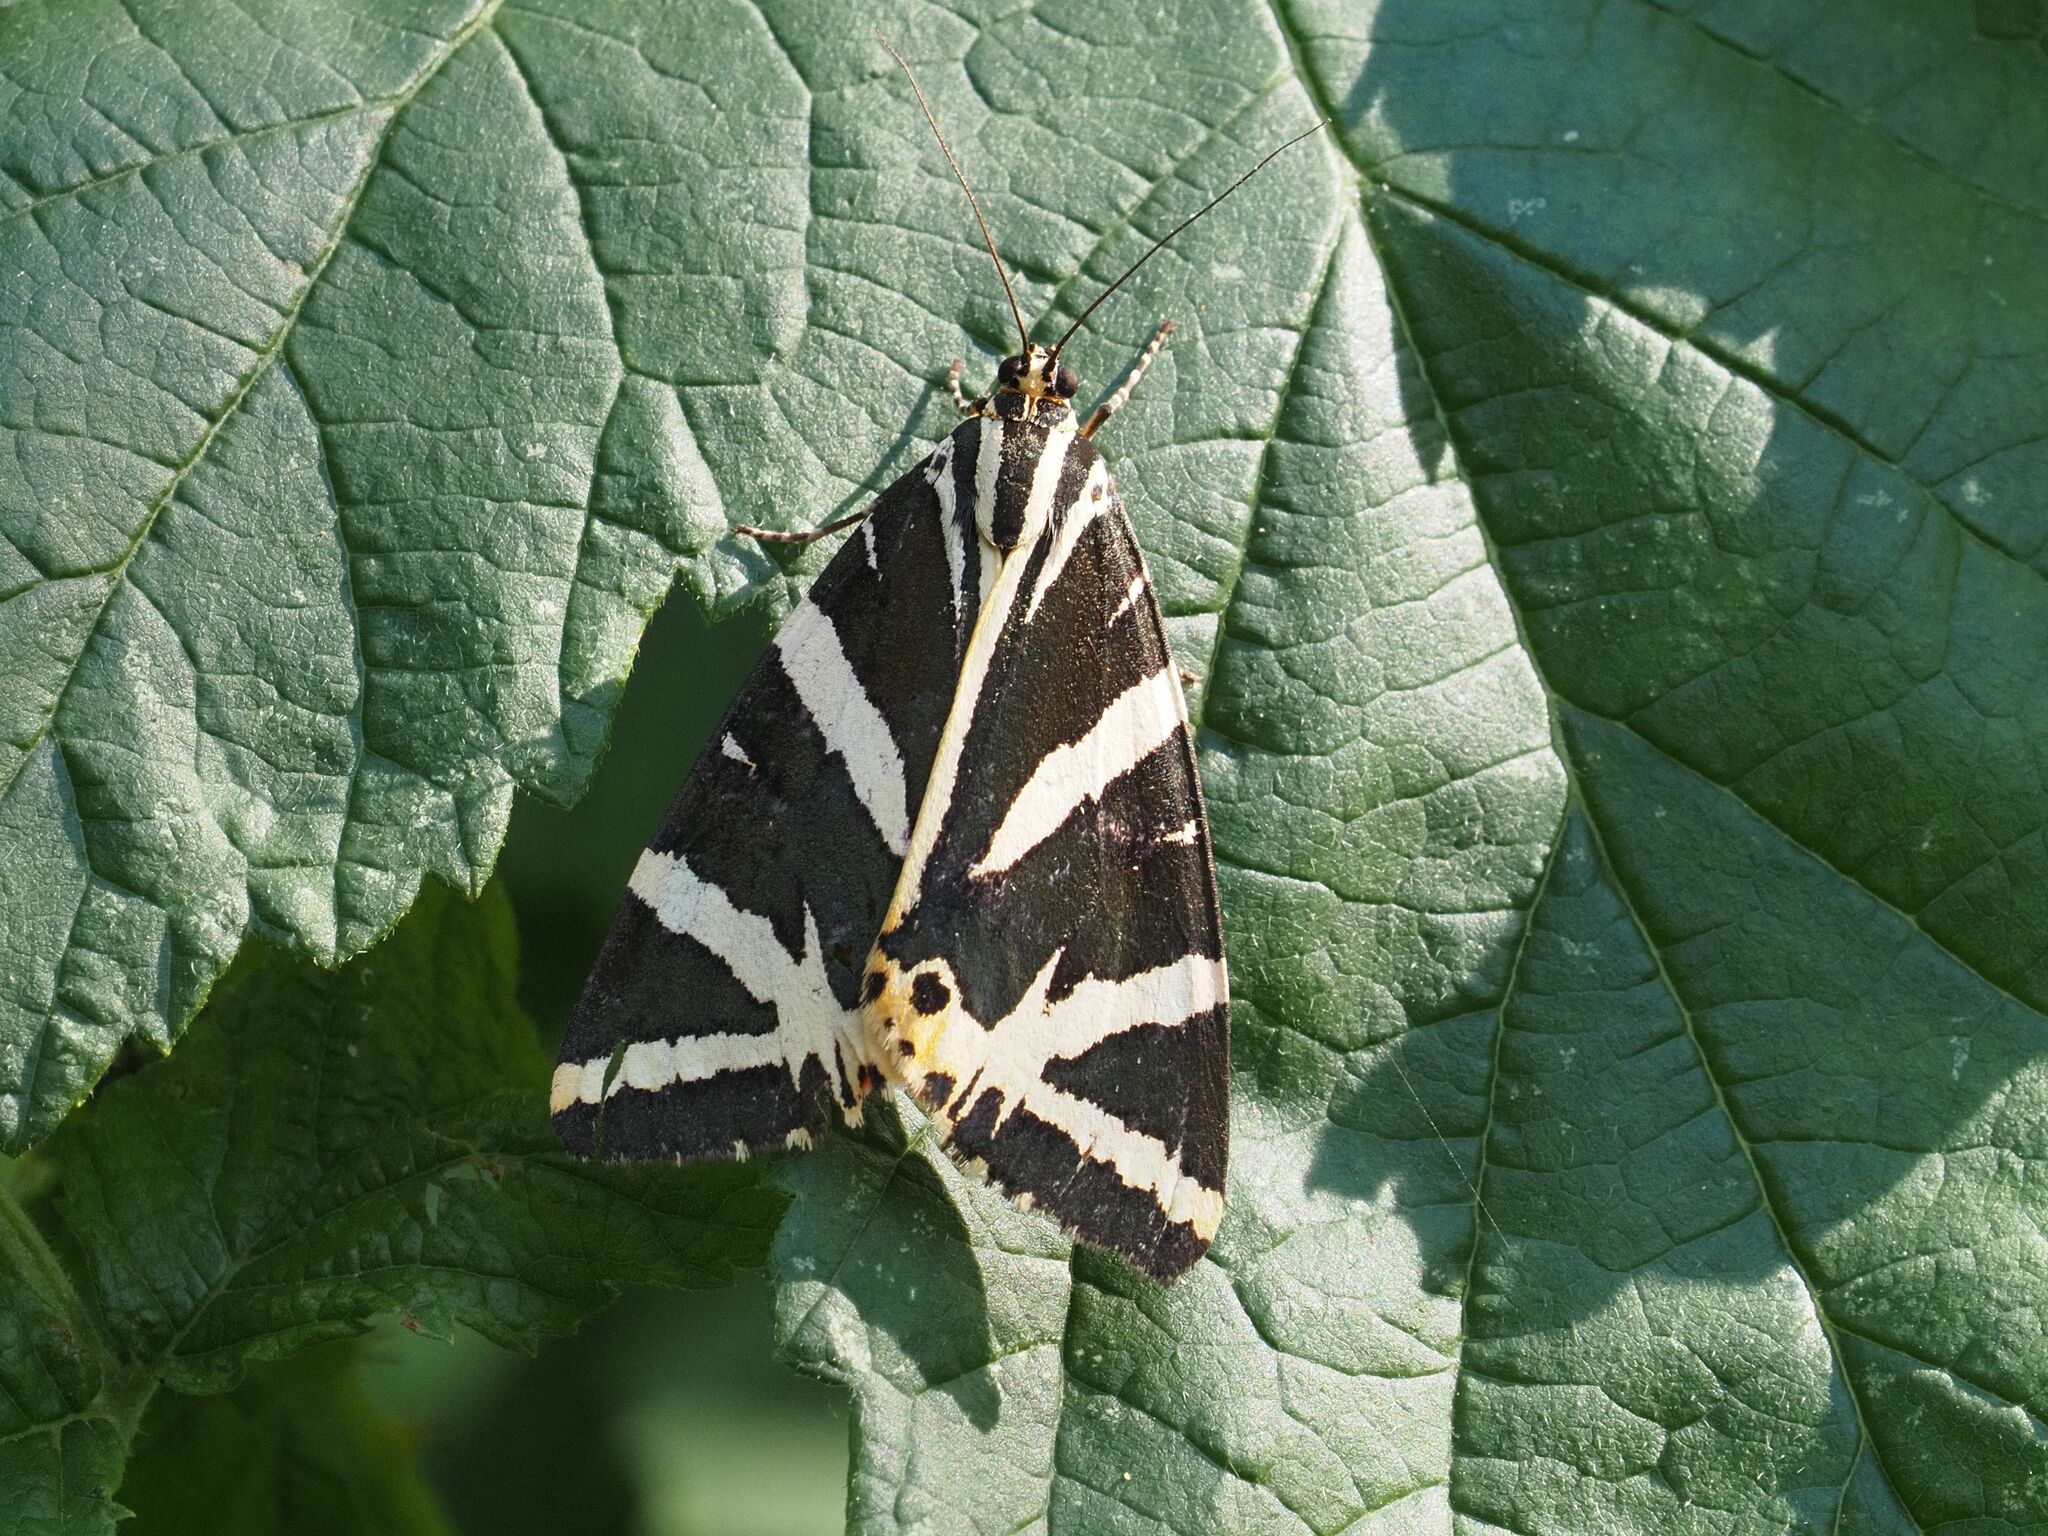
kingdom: Animalia
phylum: Arthropoda
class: Insecta
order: Lepidoptera
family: Erebidae
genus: Euplagia
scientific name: Euplagia quadripunctaria
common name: Jersey tiger
